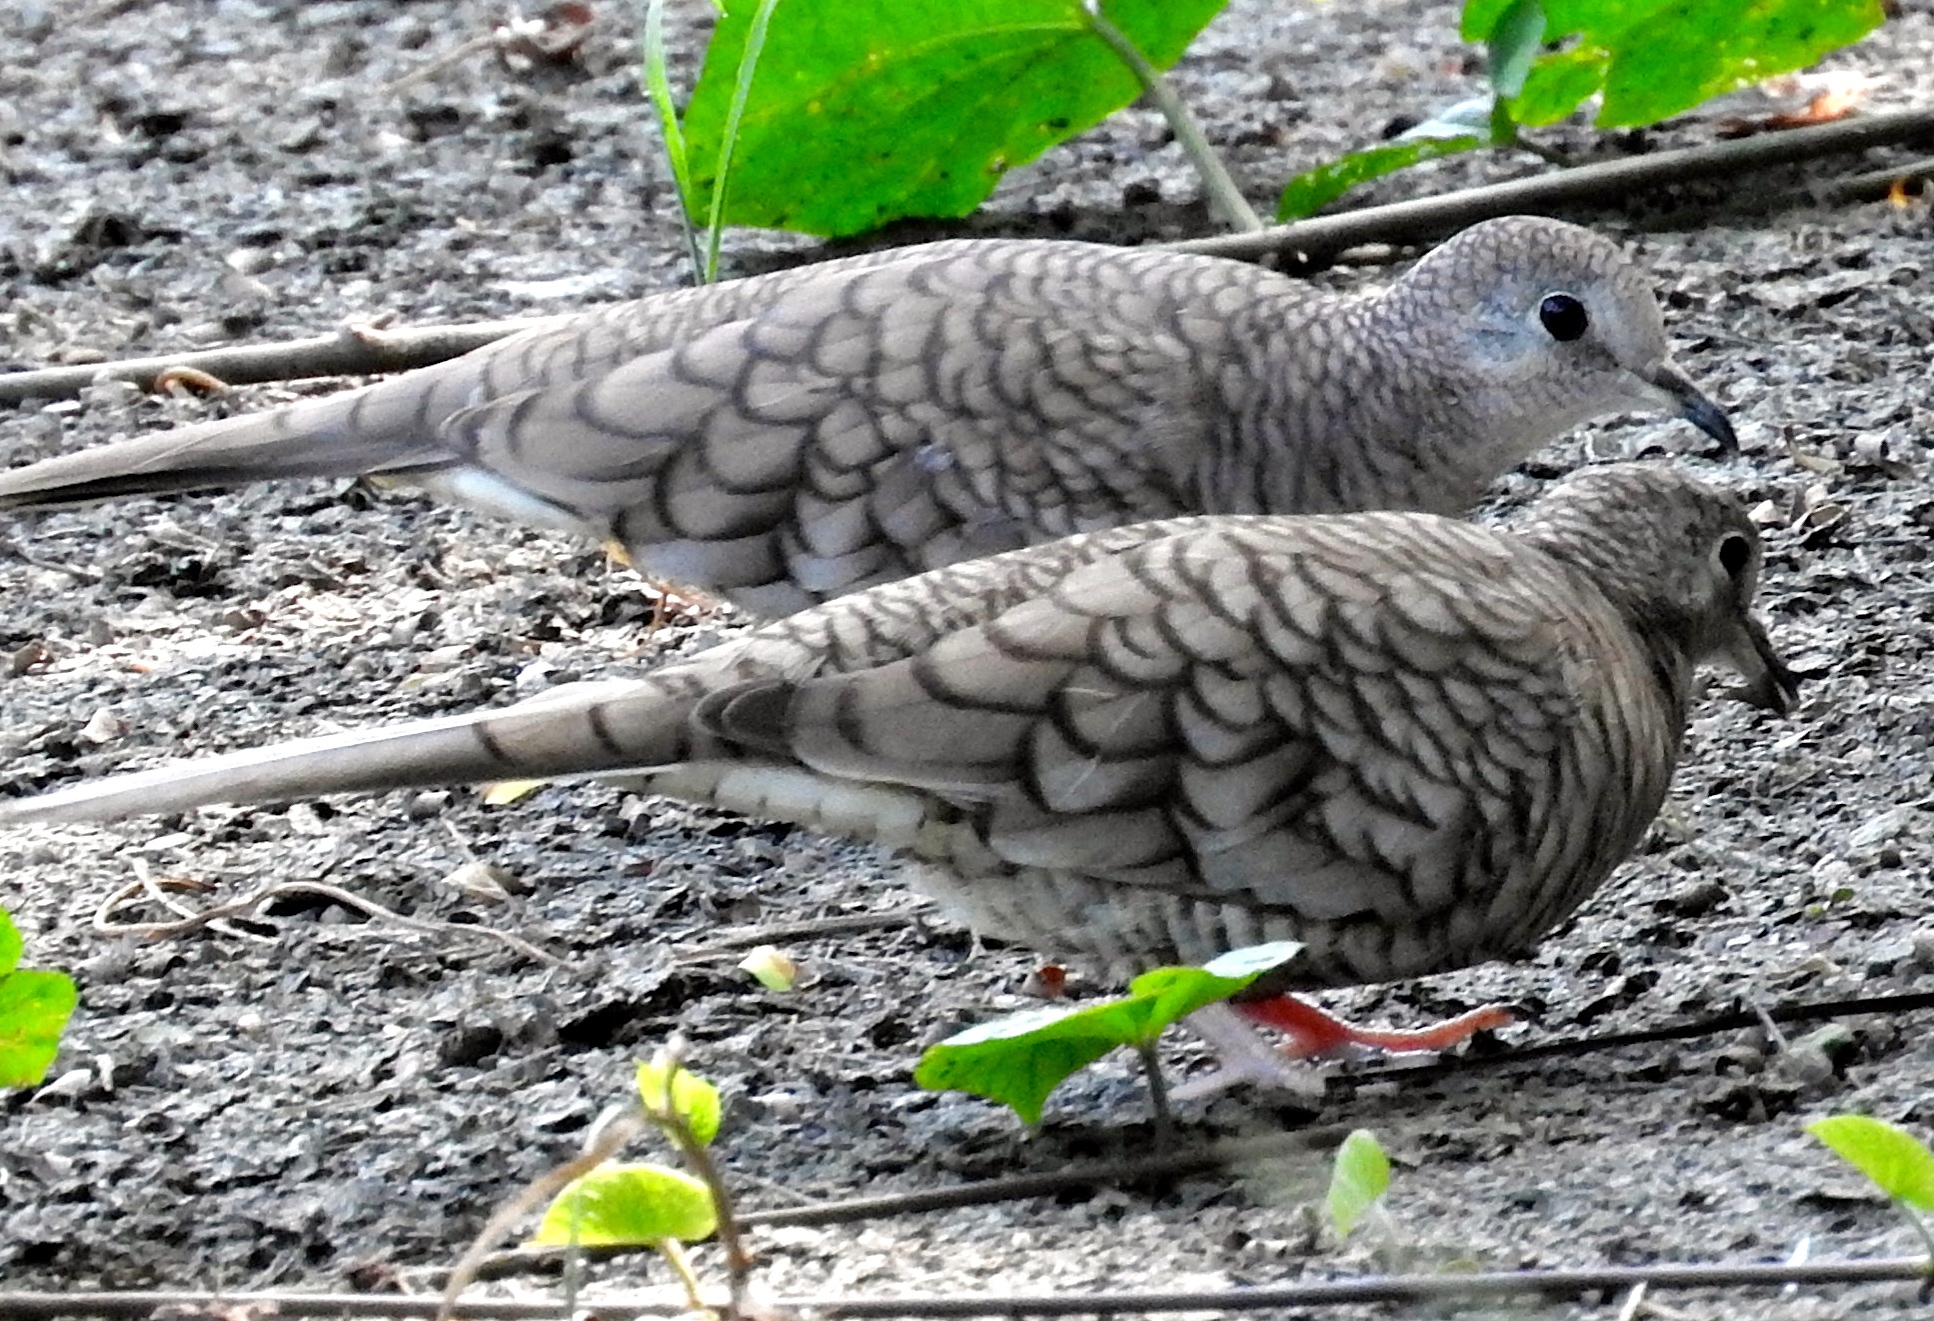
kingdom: Animalia
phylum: Chordata
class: Aves
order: Columbiformes
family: Columbidae
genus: Columbina
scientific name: Columbina inca
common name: Inca dove
